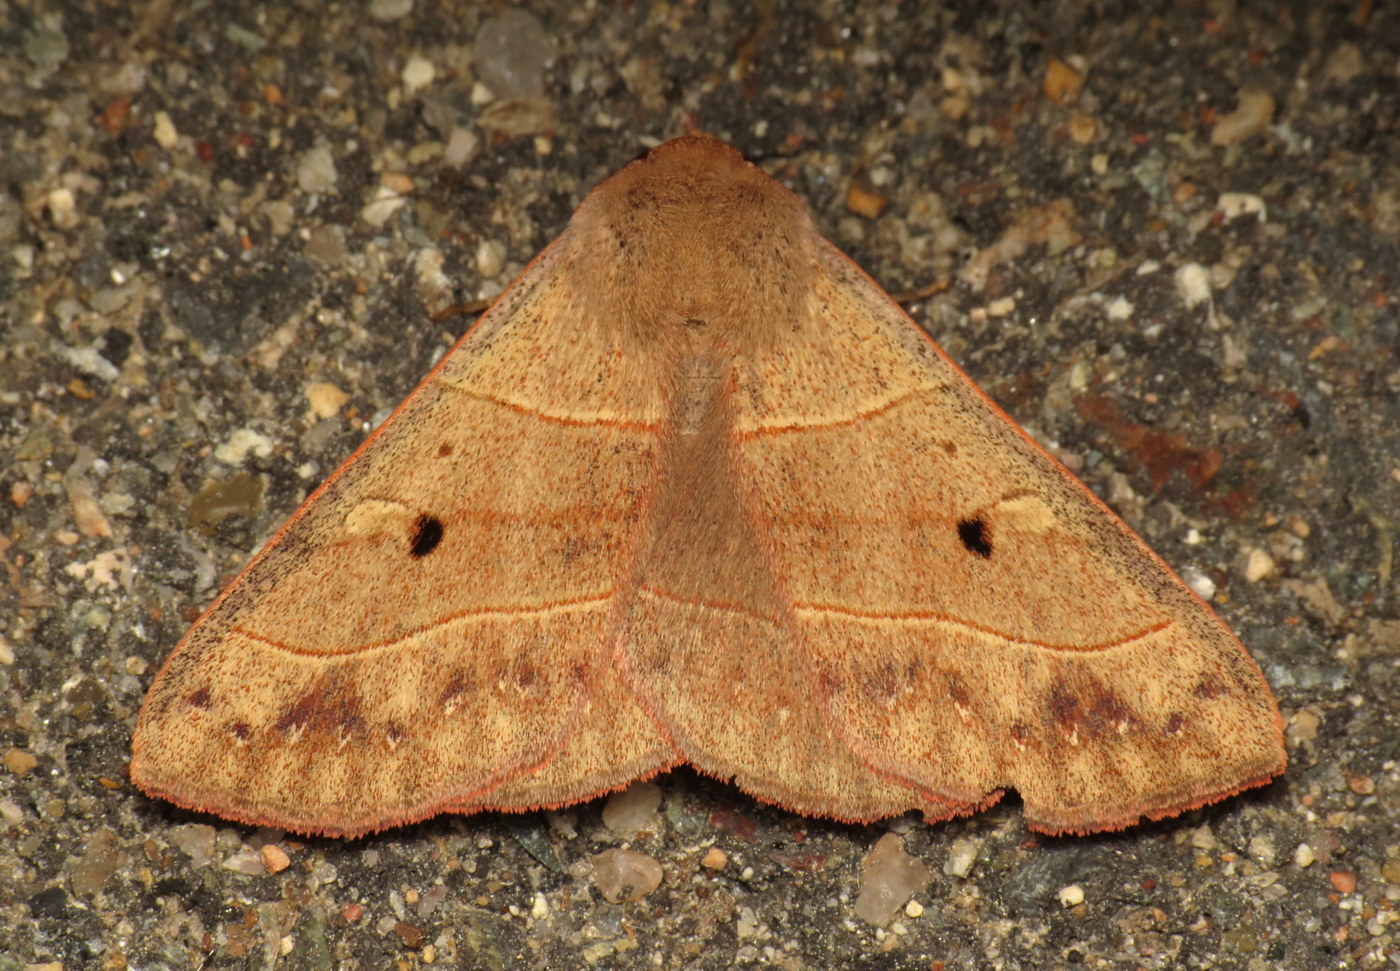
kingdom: Animalia
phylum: Arthropoda
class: Insecta
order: Lepidoptera
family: Erebidae
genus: Panopoda
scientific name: Panopoda rufimargo
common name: Red-lined panopoda moth
